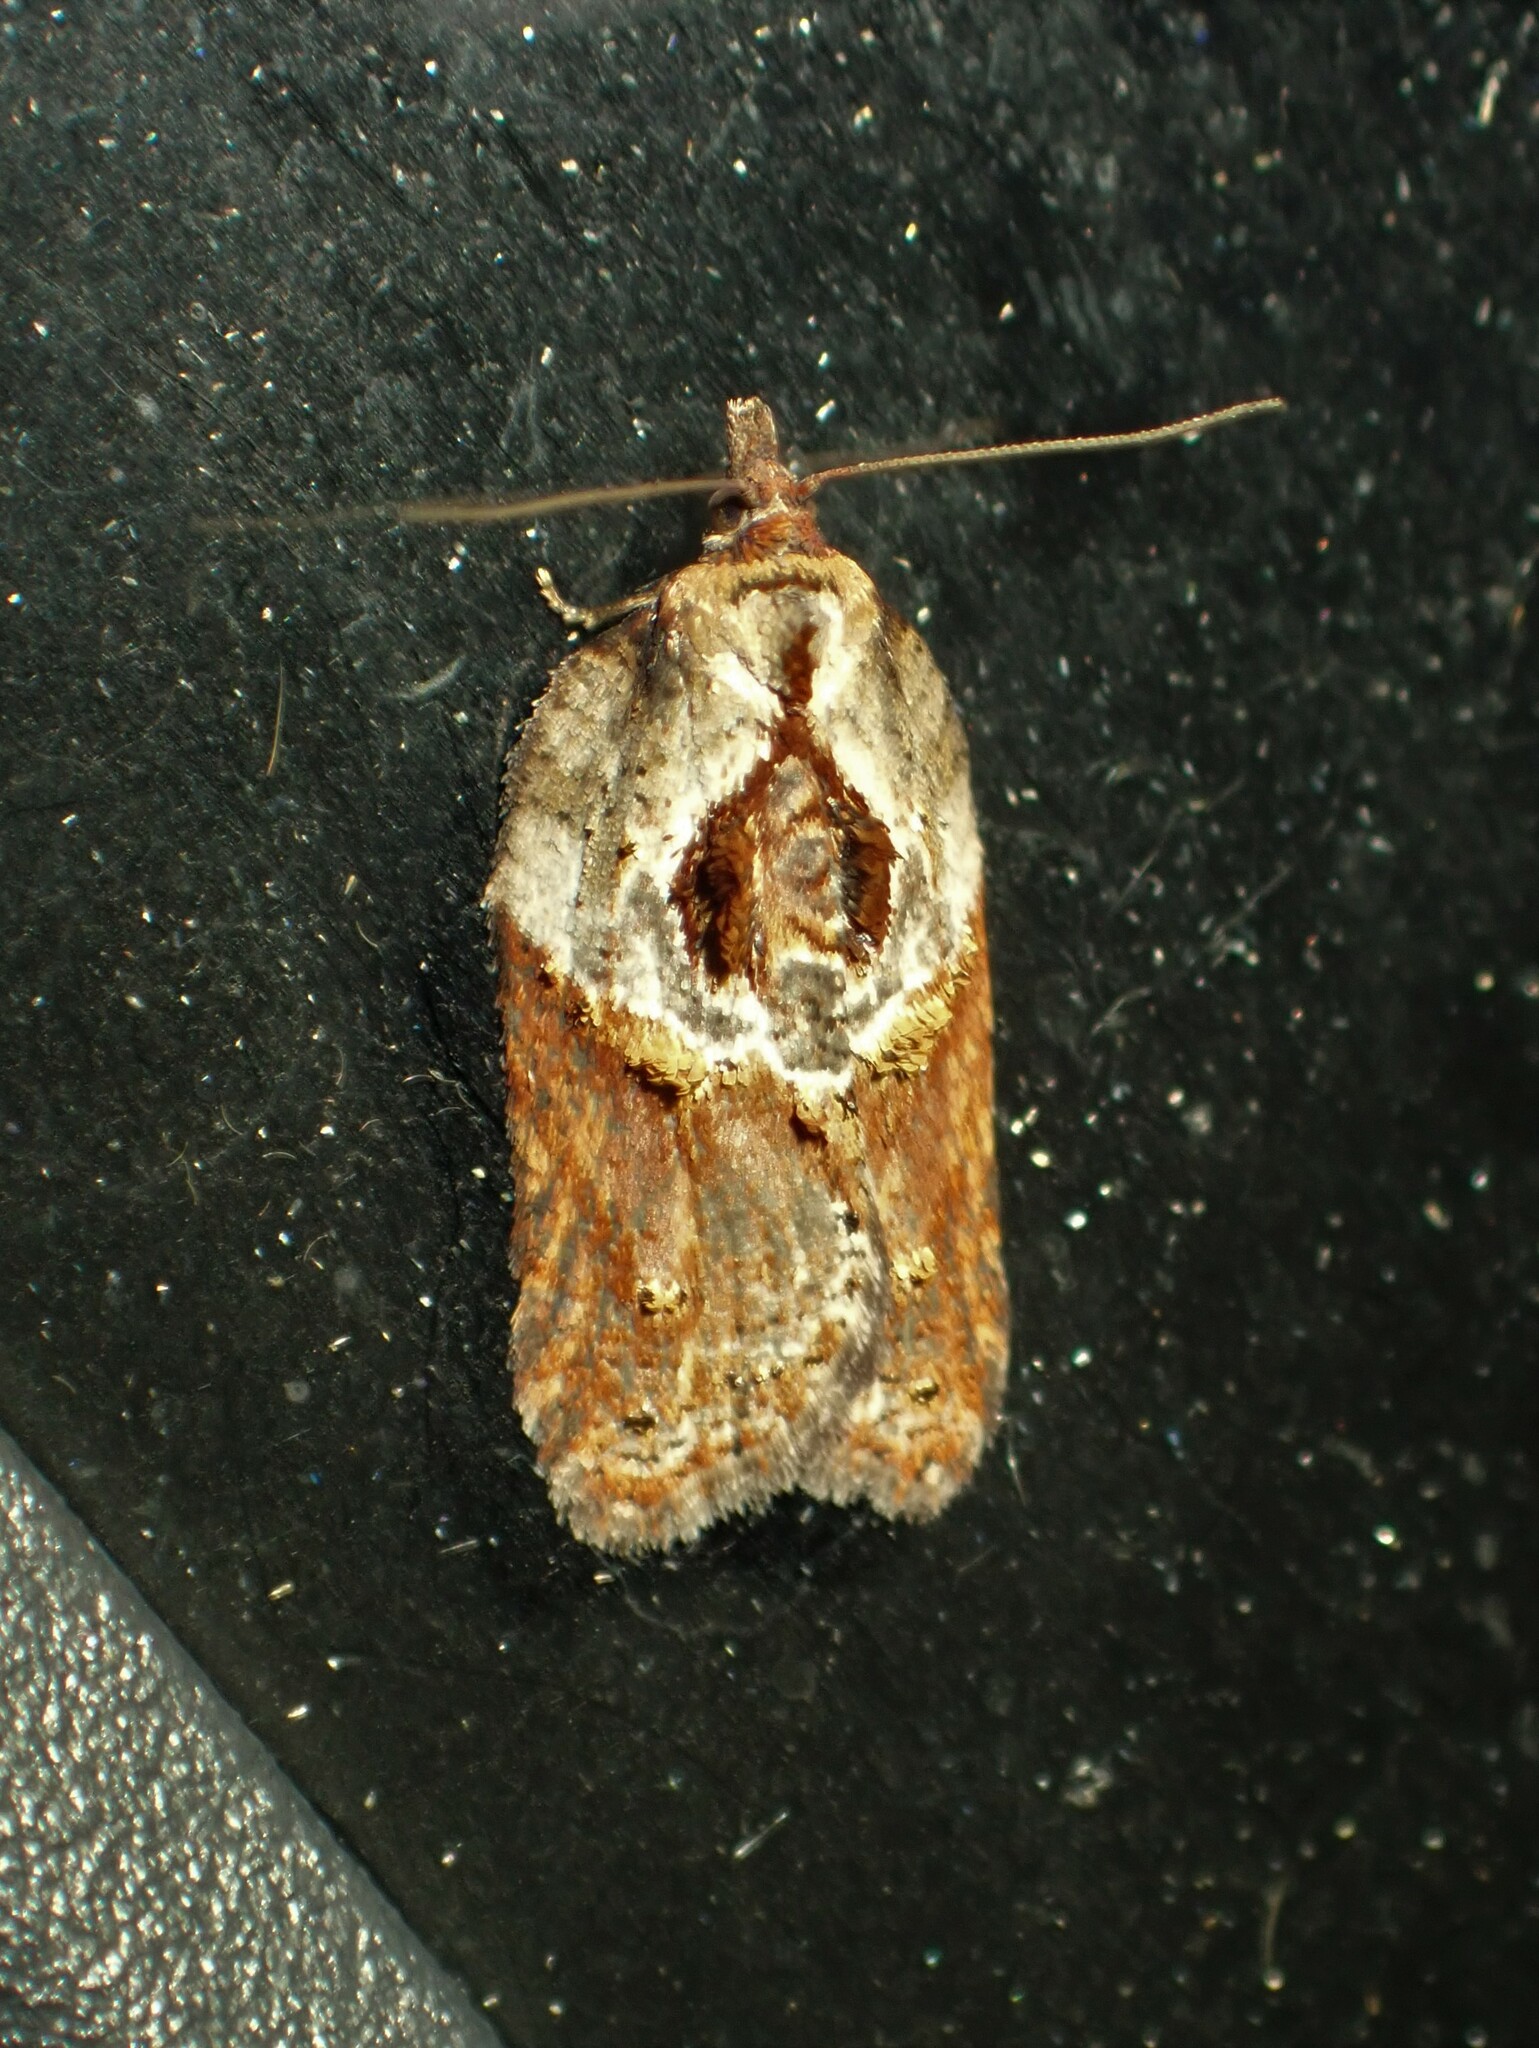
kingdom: Animalia
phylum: Arthropoda
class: Insecta
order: Lepidoptera
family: Tortricidae
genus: Acleris
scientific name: Acleris inana
